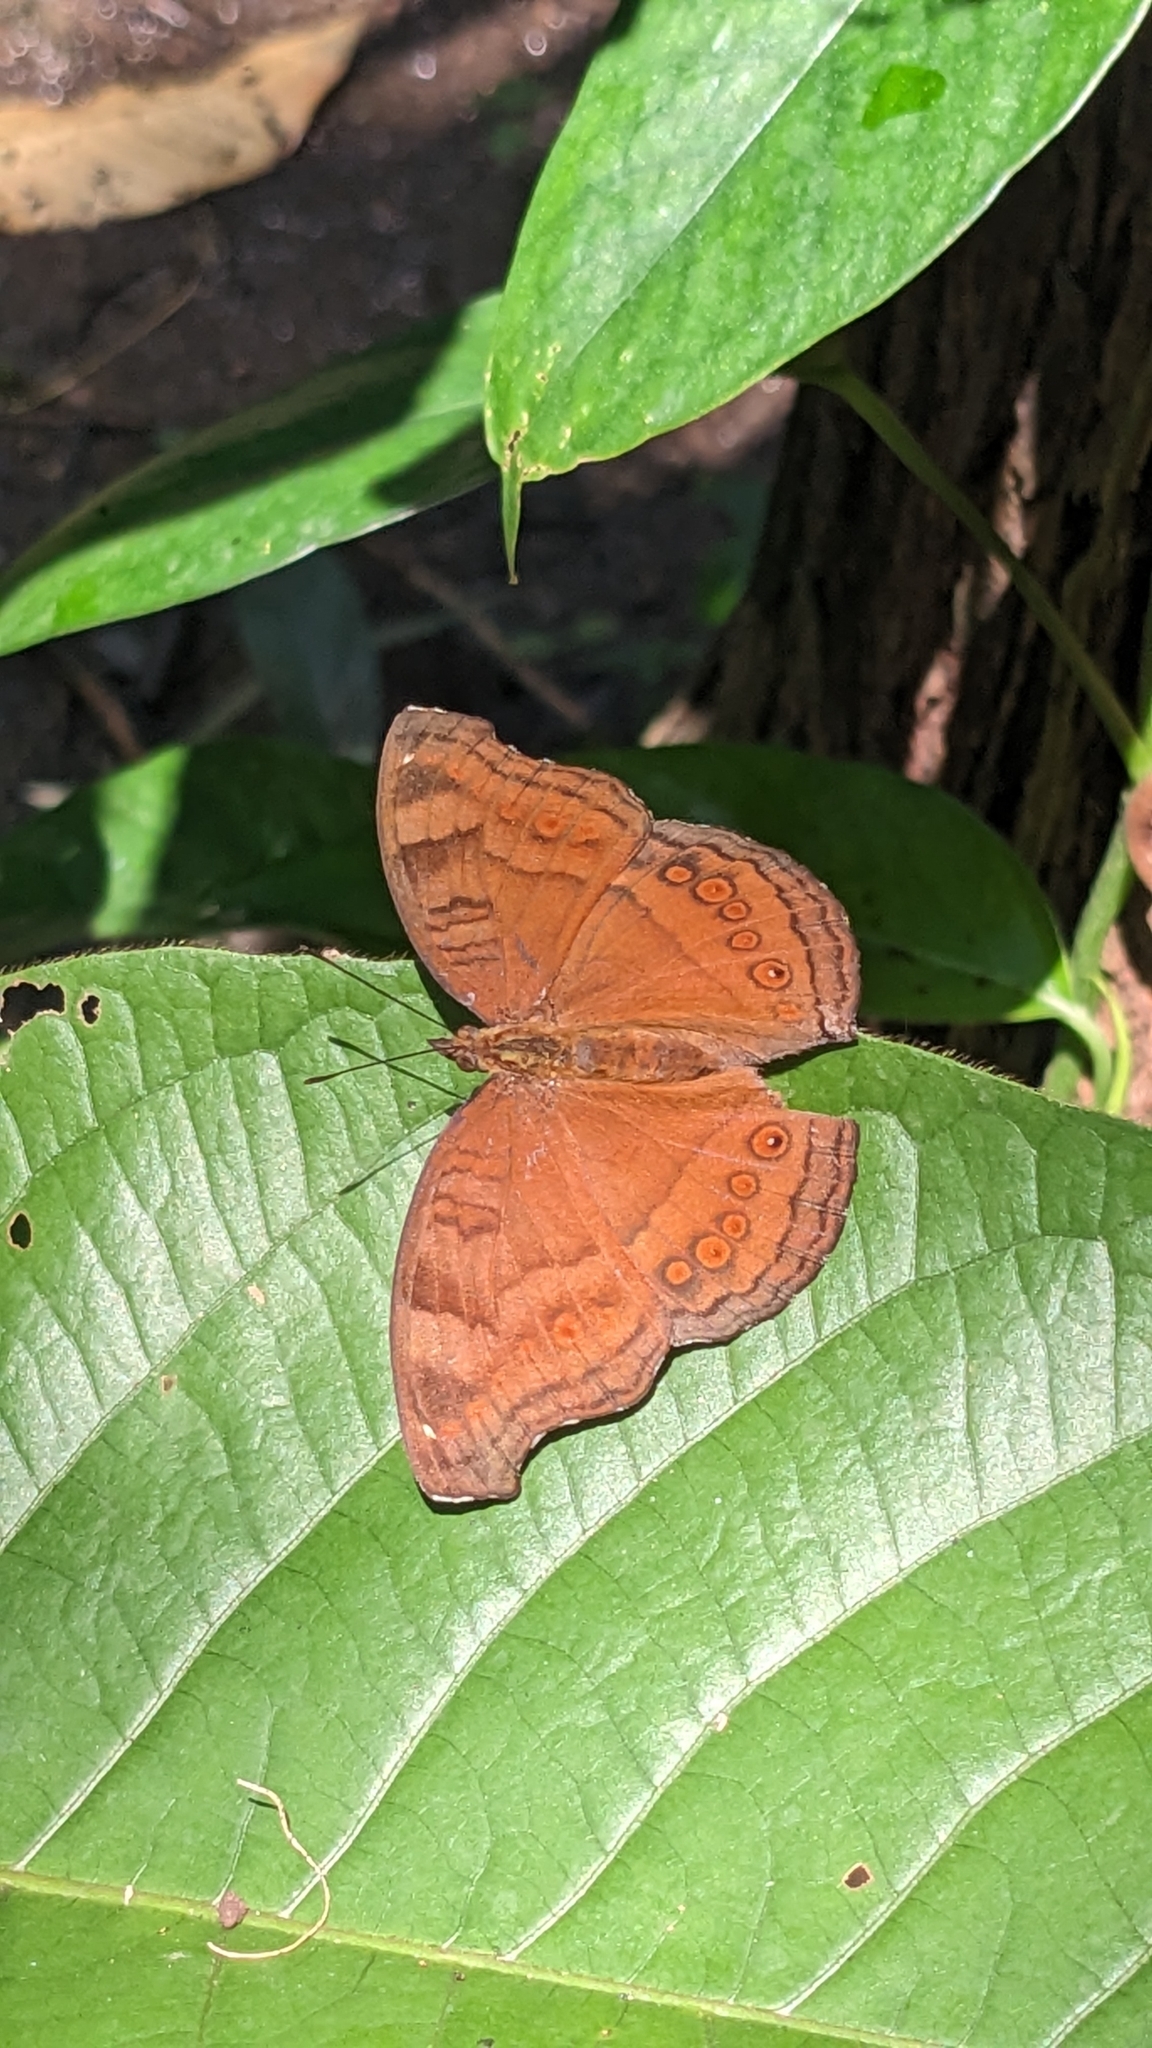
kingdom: Animalia
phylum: Arthropoda
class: Insecta
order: Lepidoptera
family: Nymphalidae
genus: Junonia
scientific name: Junonia hedonia
